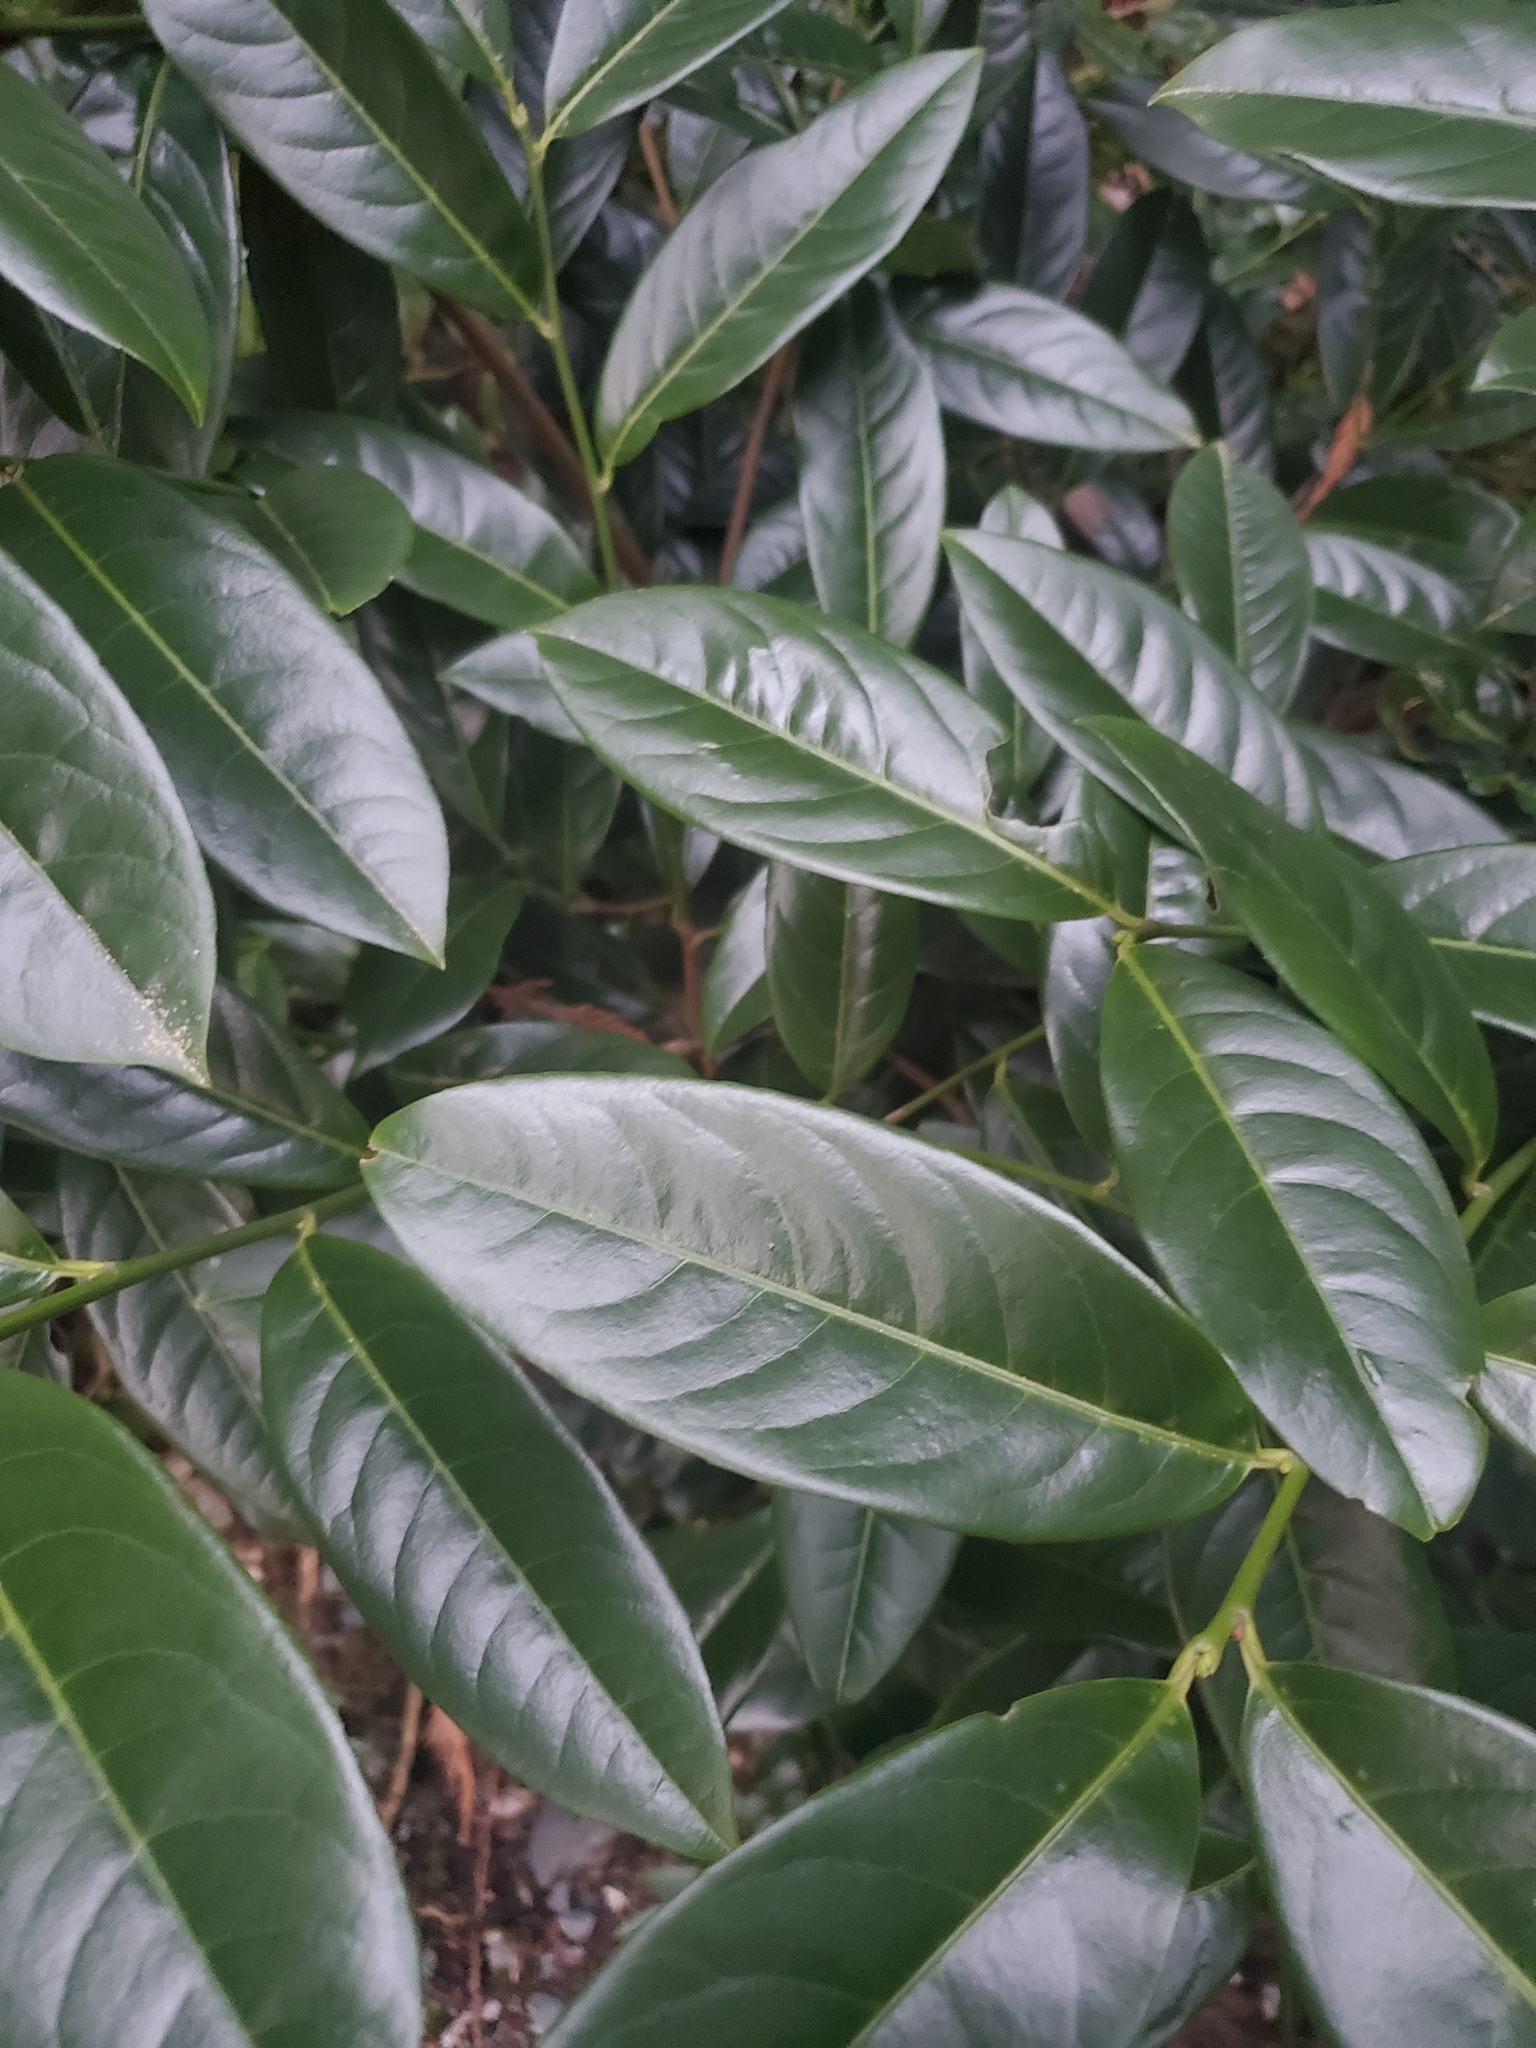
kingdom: Plantae
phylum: Tracheophyta
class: Magnoliopsida
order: Rosales
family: Rosaceae
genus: Prunus
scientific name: Prunus laurocerasus
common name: Cherry laurel
